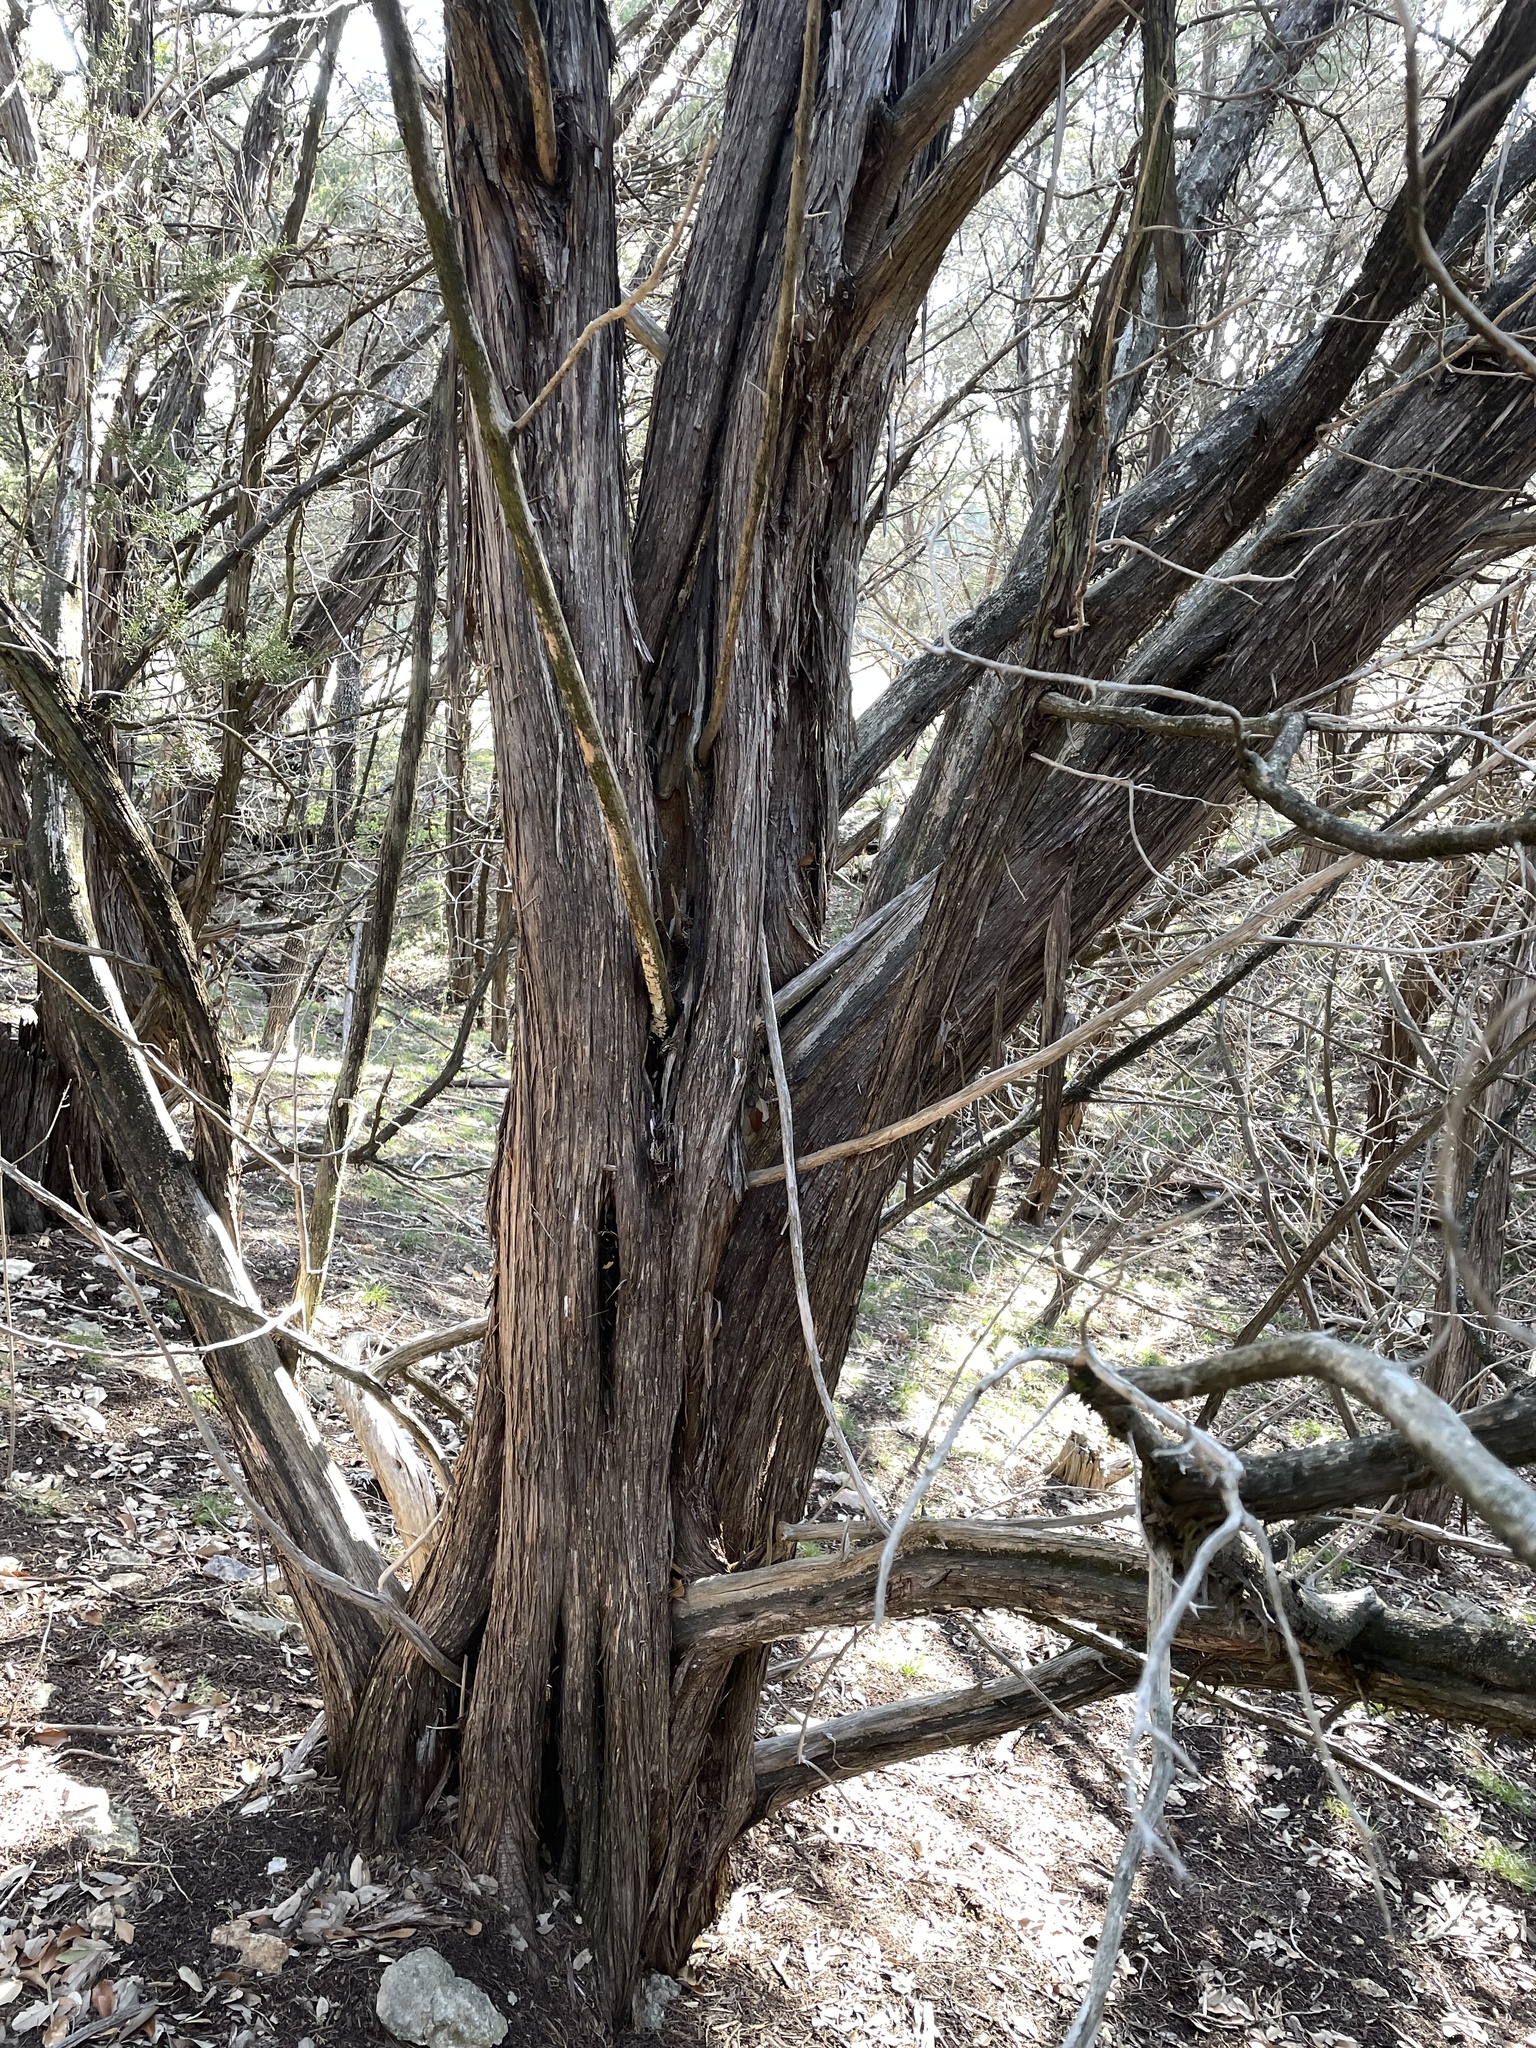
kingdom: Plantae
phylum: Tracheophyta
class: Pinopsida
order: Pinales
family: Cupressaceae
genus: Juniperus
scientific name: Juniperus ashei
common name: Mexican juniper
